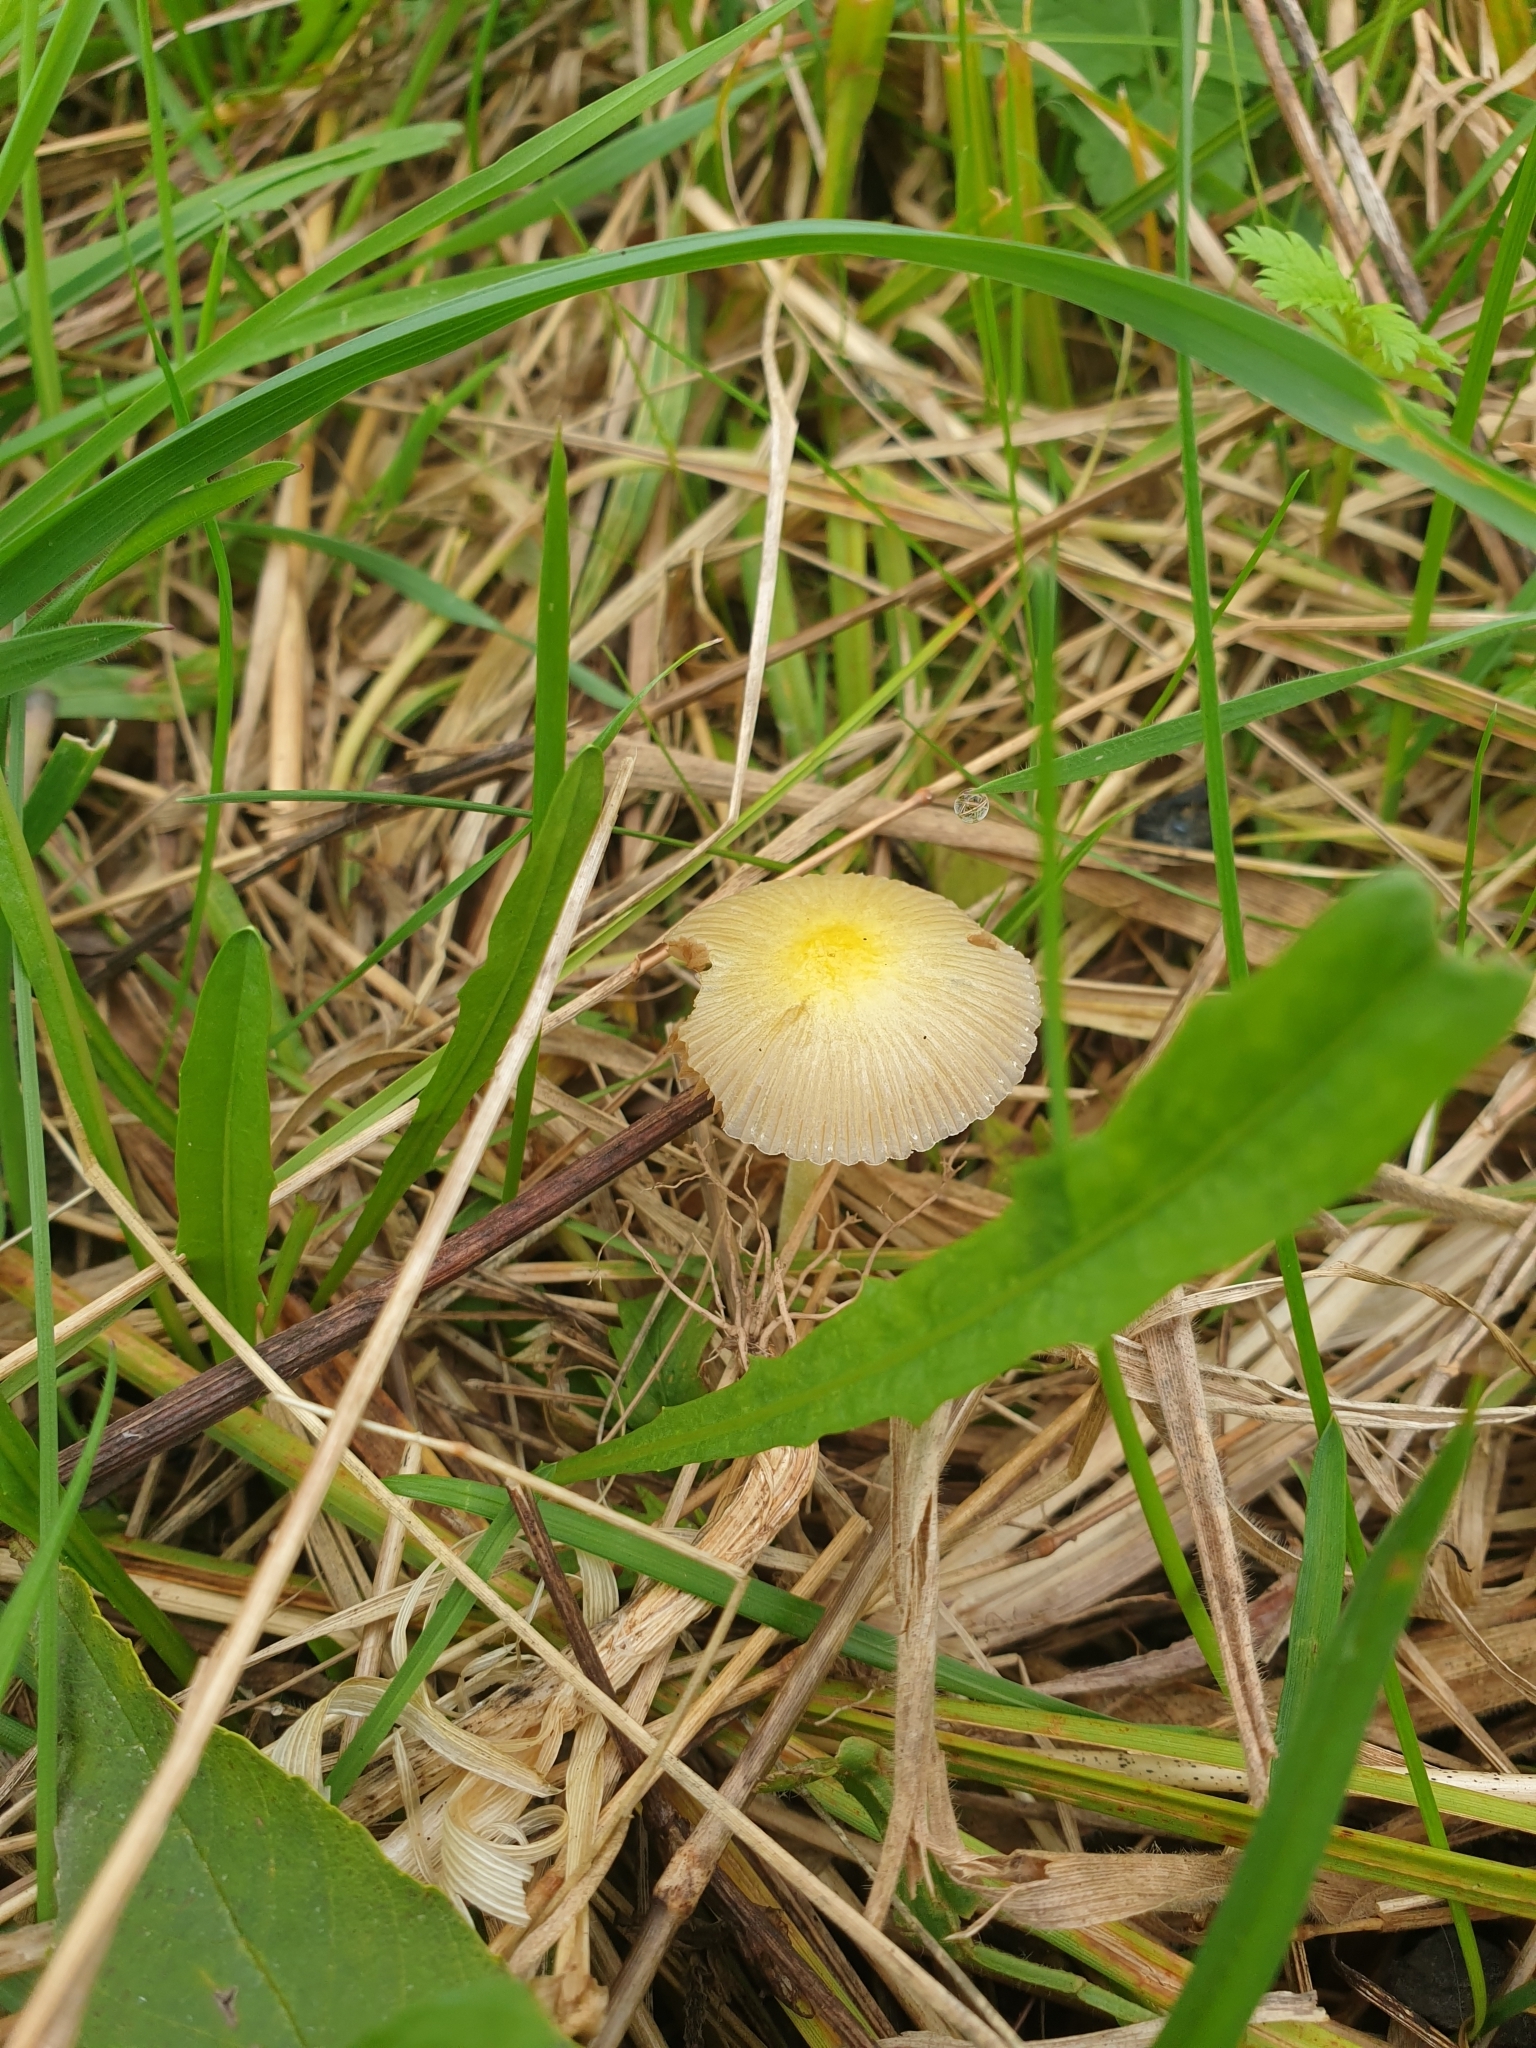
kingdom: Fungi
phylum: Basidiomycota
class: Agaricomycetes
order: Agaricales
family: Bolbitiaceae
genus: Bolbitius
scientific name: Bolbitius titubans
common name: Yellow fieldcap
